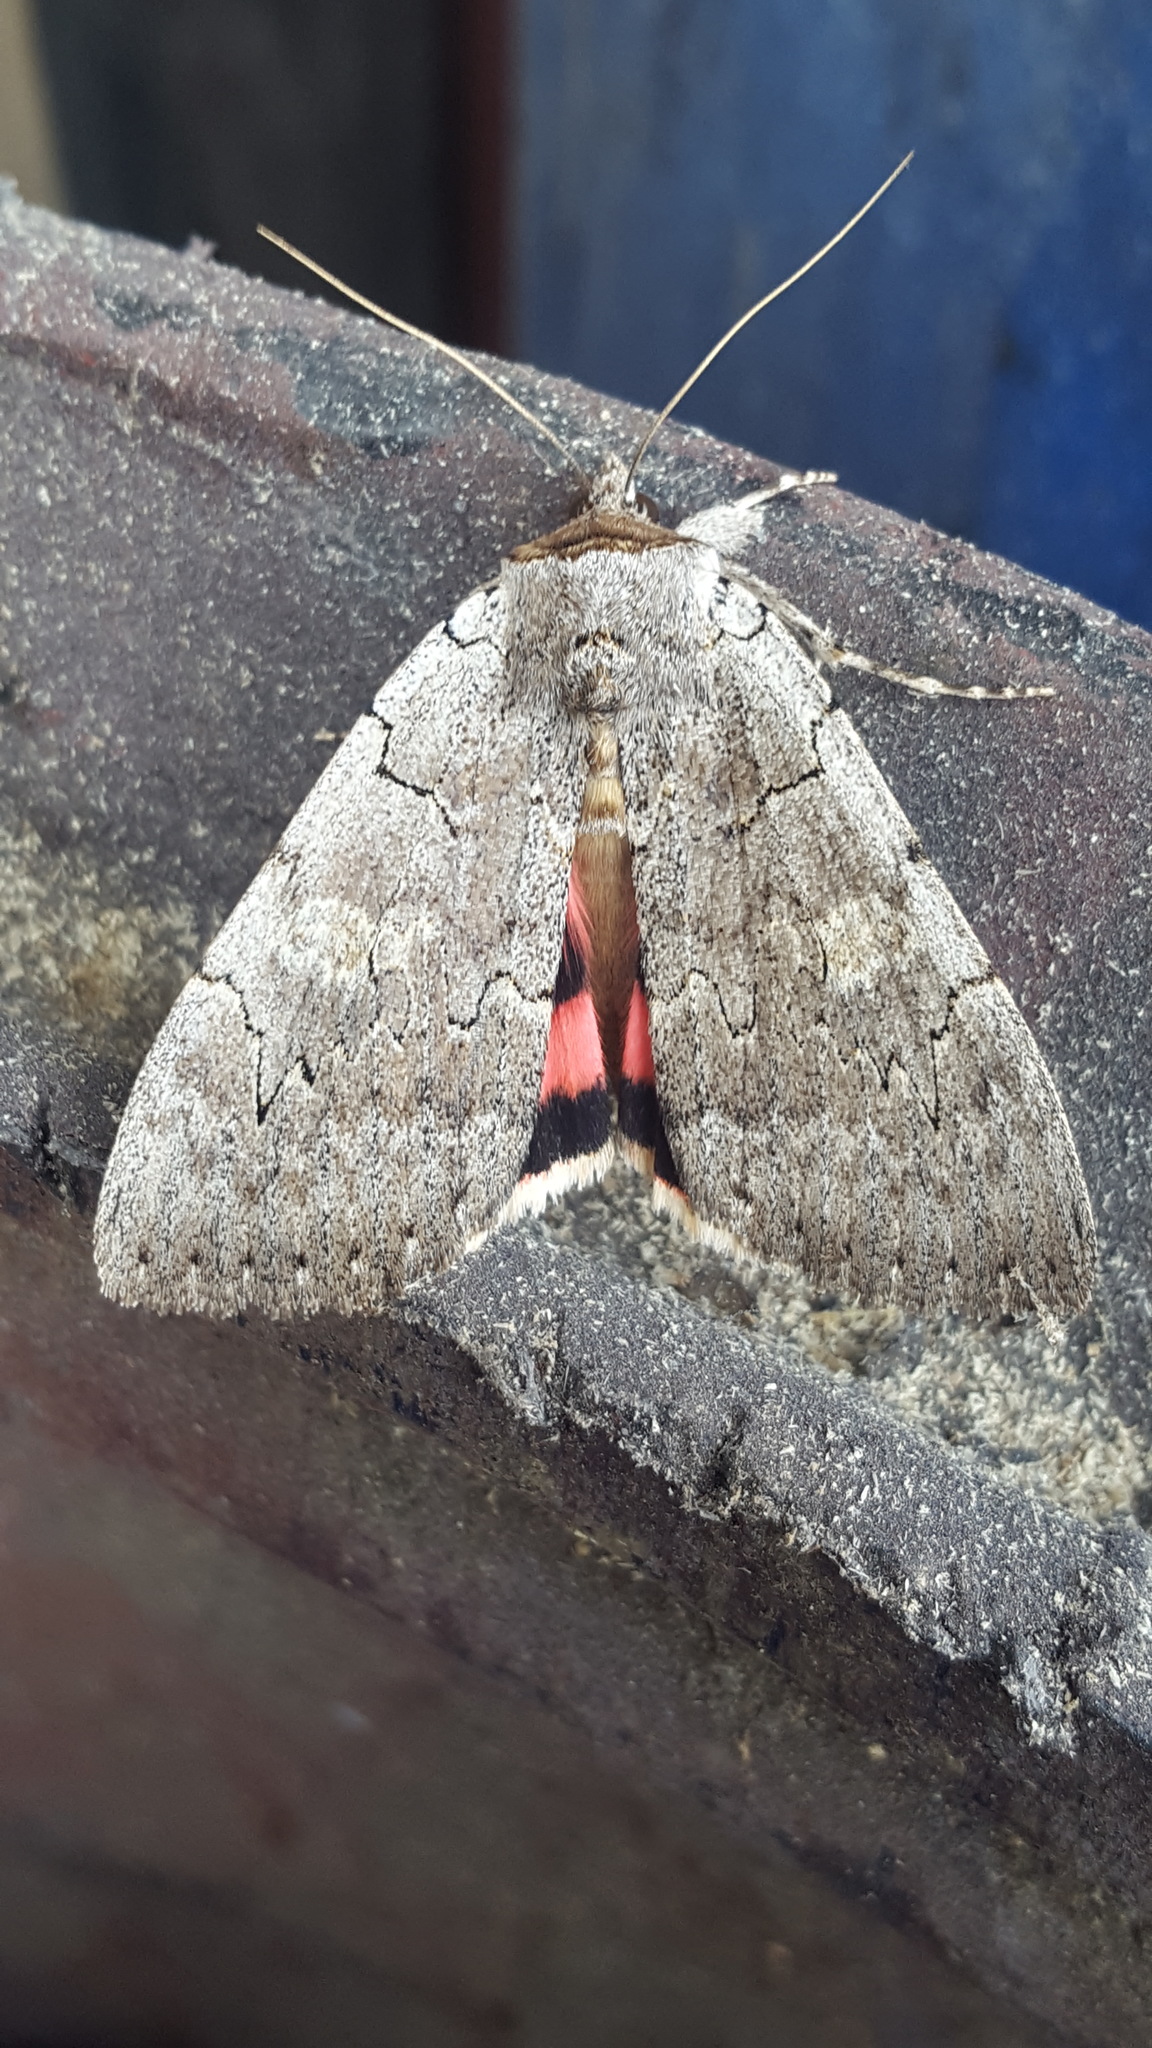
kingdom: Animalia
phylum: Arthropoda
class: Insecta
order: Lepidoptera
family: Erebidae
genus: Catocala
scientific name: Catocala concumbens
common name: Pink underwing
